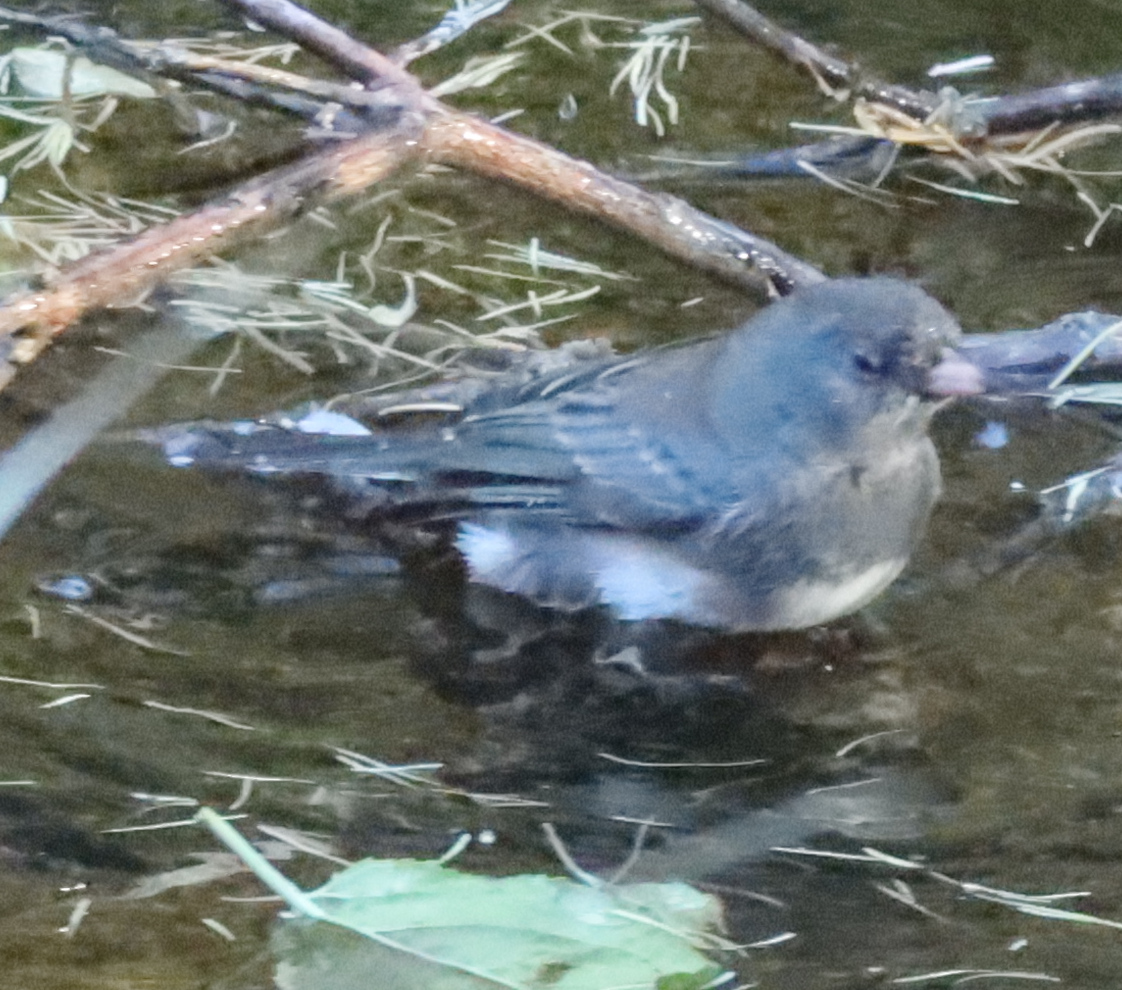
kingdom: Animalia
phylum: Chordata
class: Aves
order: Passeriformes
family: Passerellidae
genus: Junco
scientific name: Junco hyemalis
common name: Dark-eyed junco
